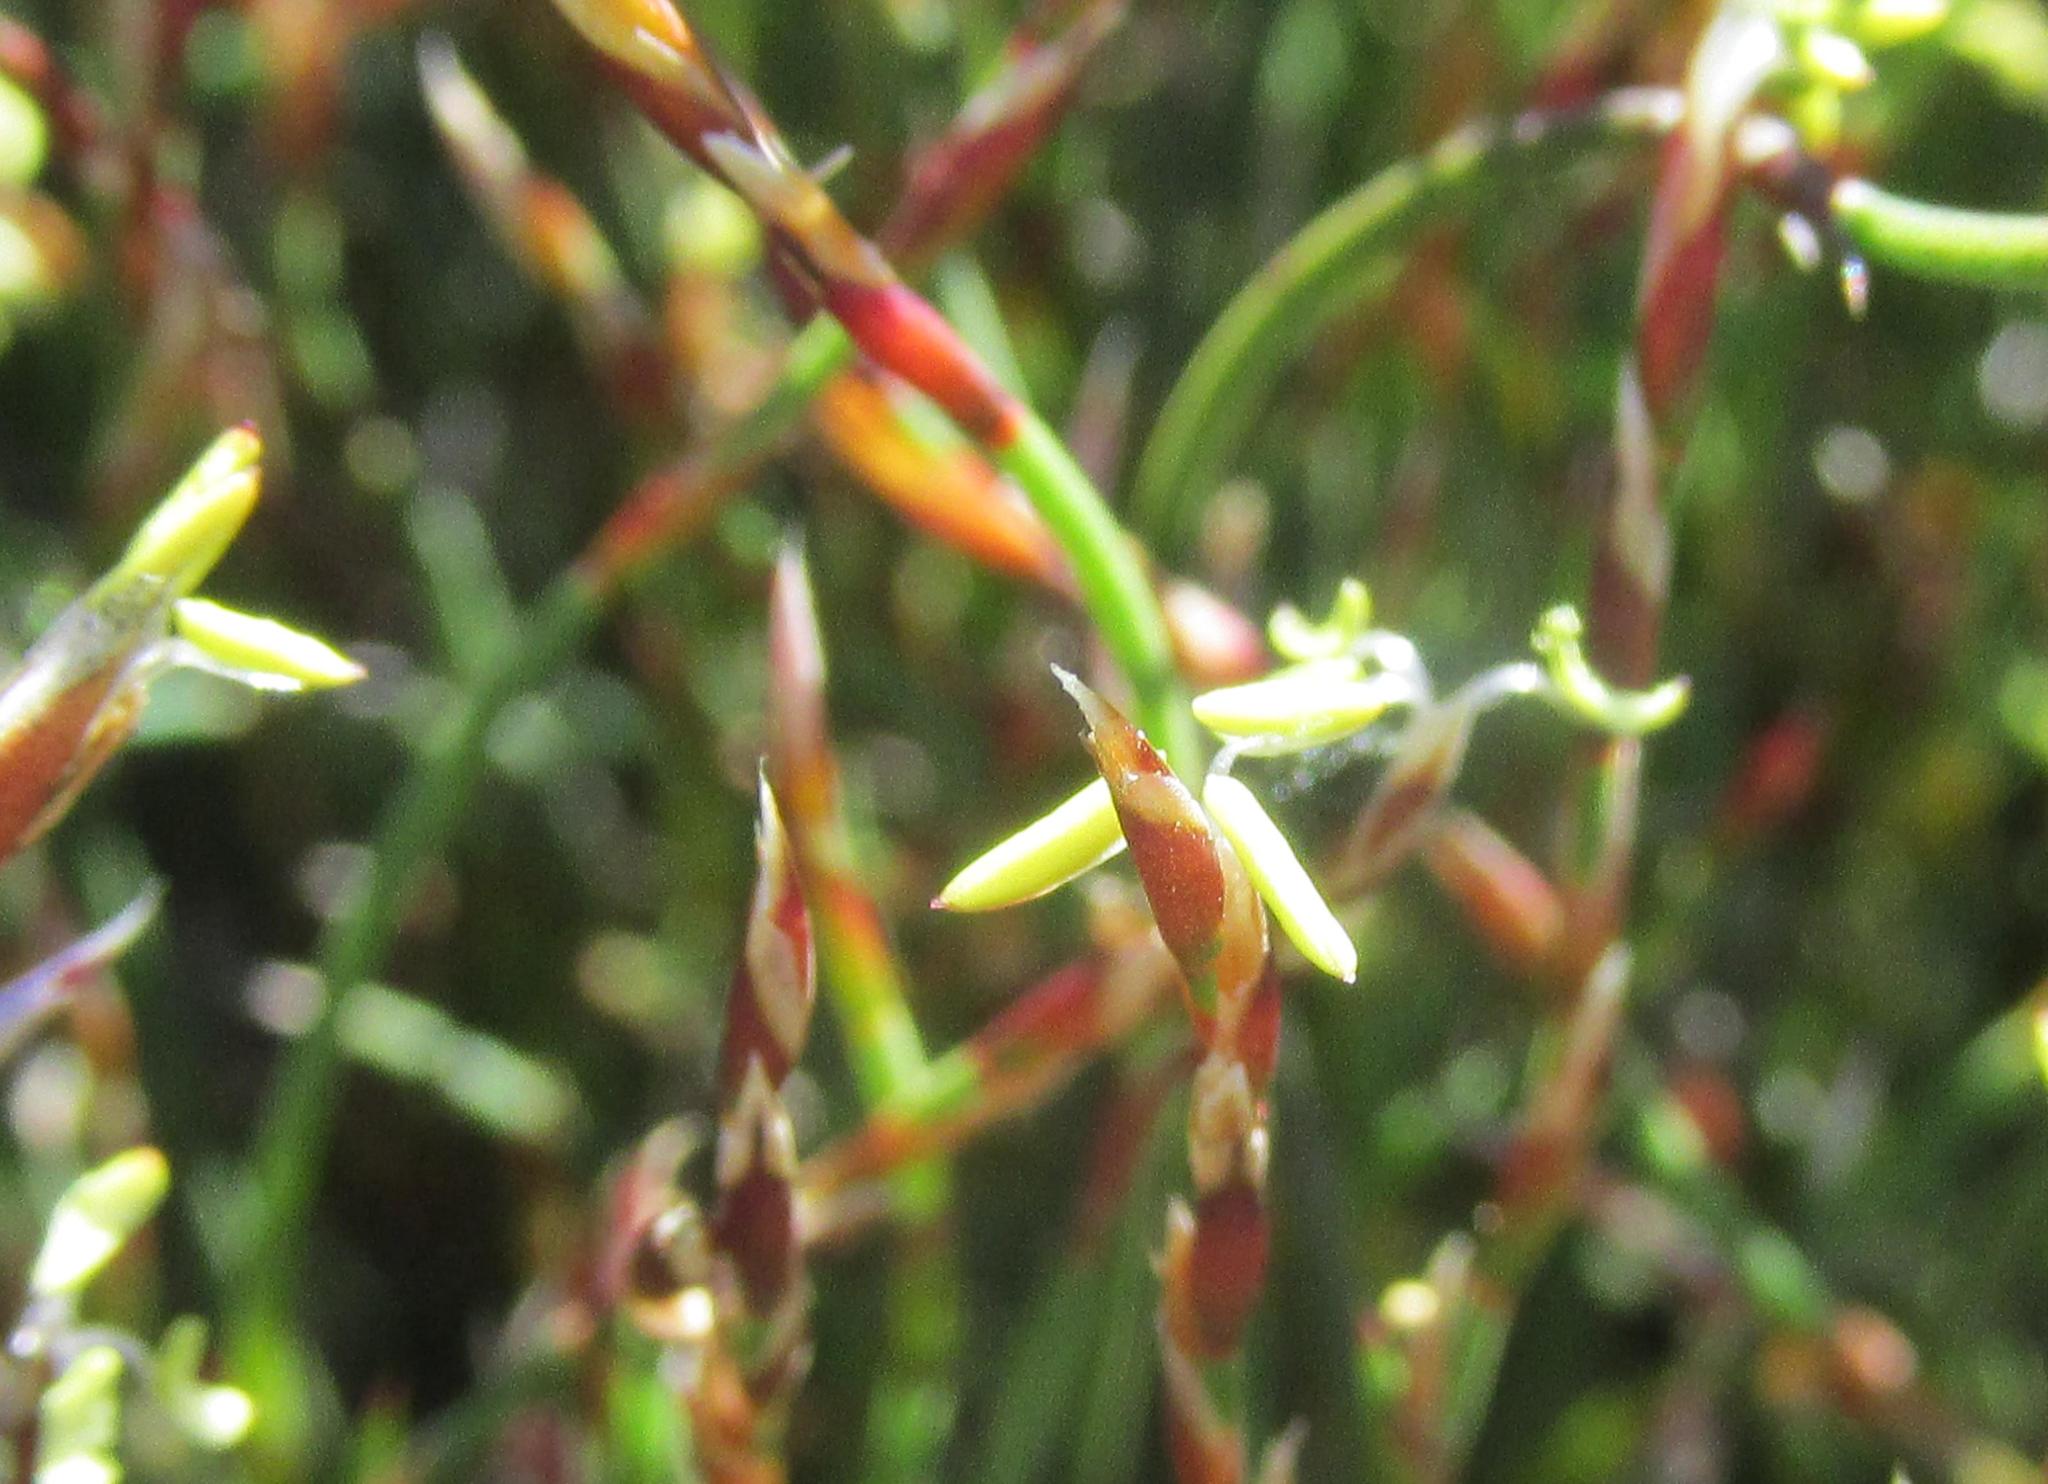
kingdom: Plantae
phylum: Tracheophyta
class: Liliopsida
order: Poales
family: Restionaceae
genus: Restio
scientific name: Restio duthieae
